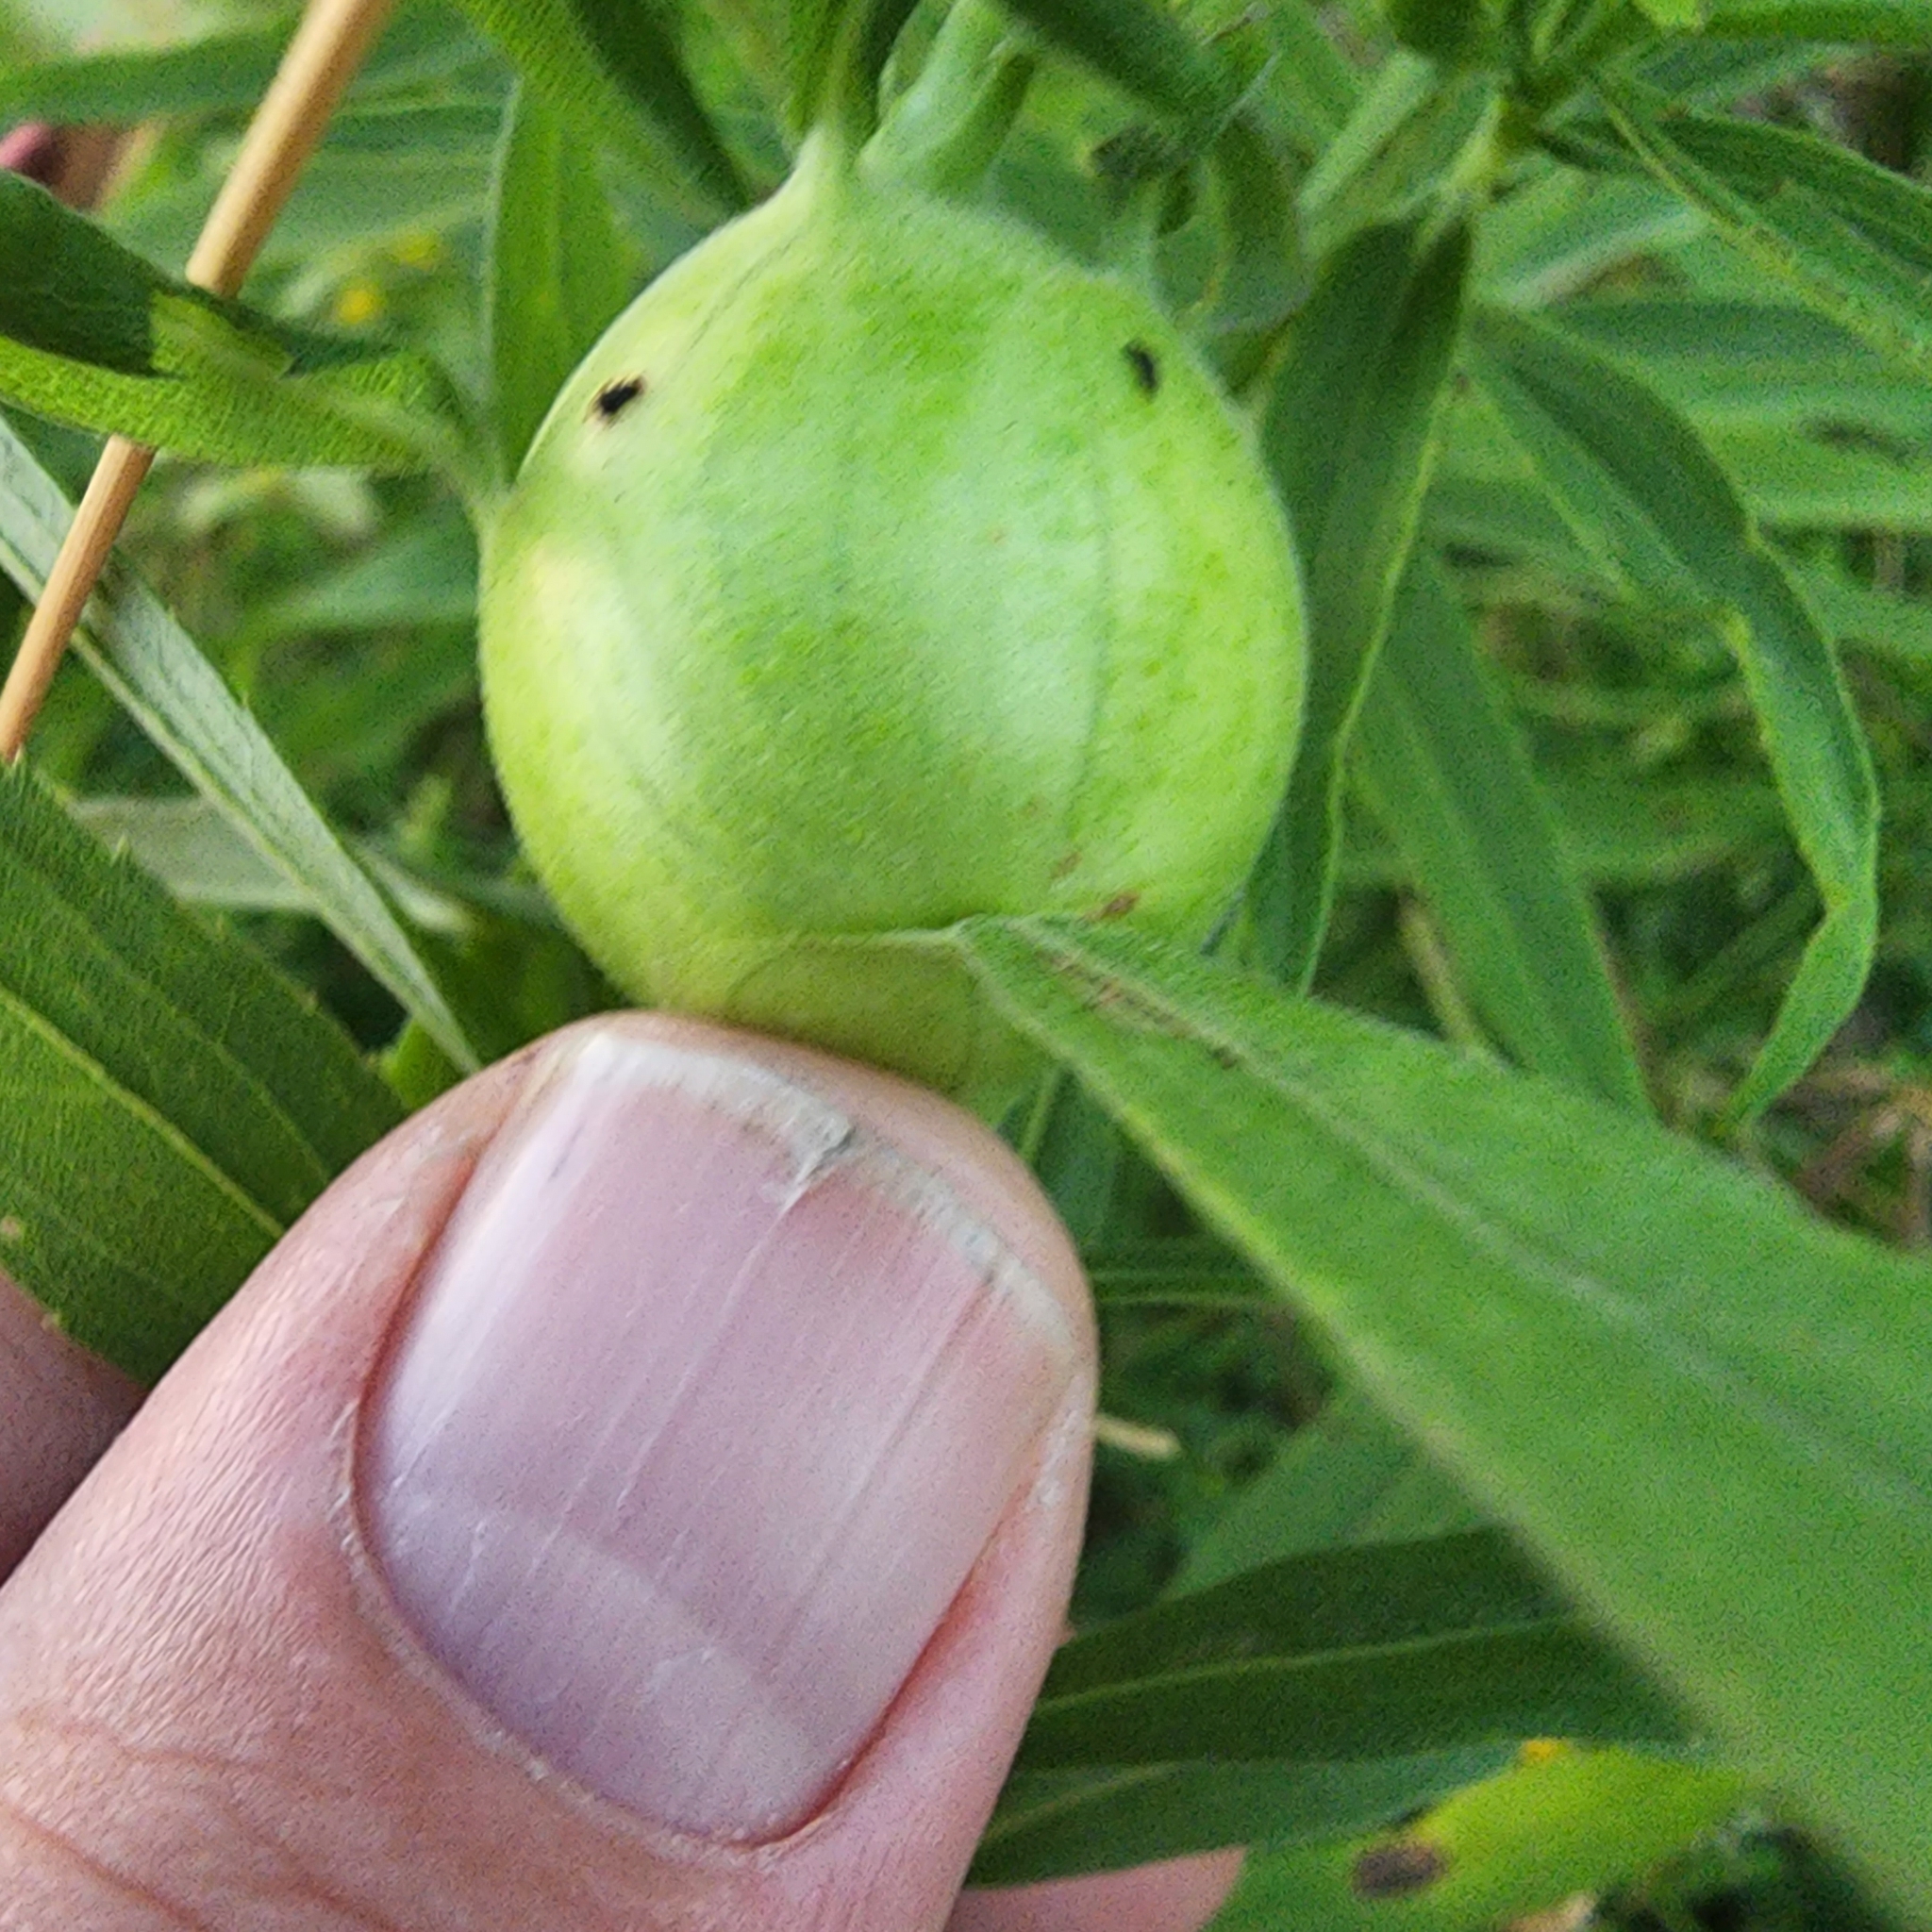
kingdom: Animalia
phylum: Arthropoda
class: Insecta
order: Diptera
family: Tephritidae
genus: Eurosta
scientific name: Eurosta solidaginis
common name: Goldenrod gall fly
